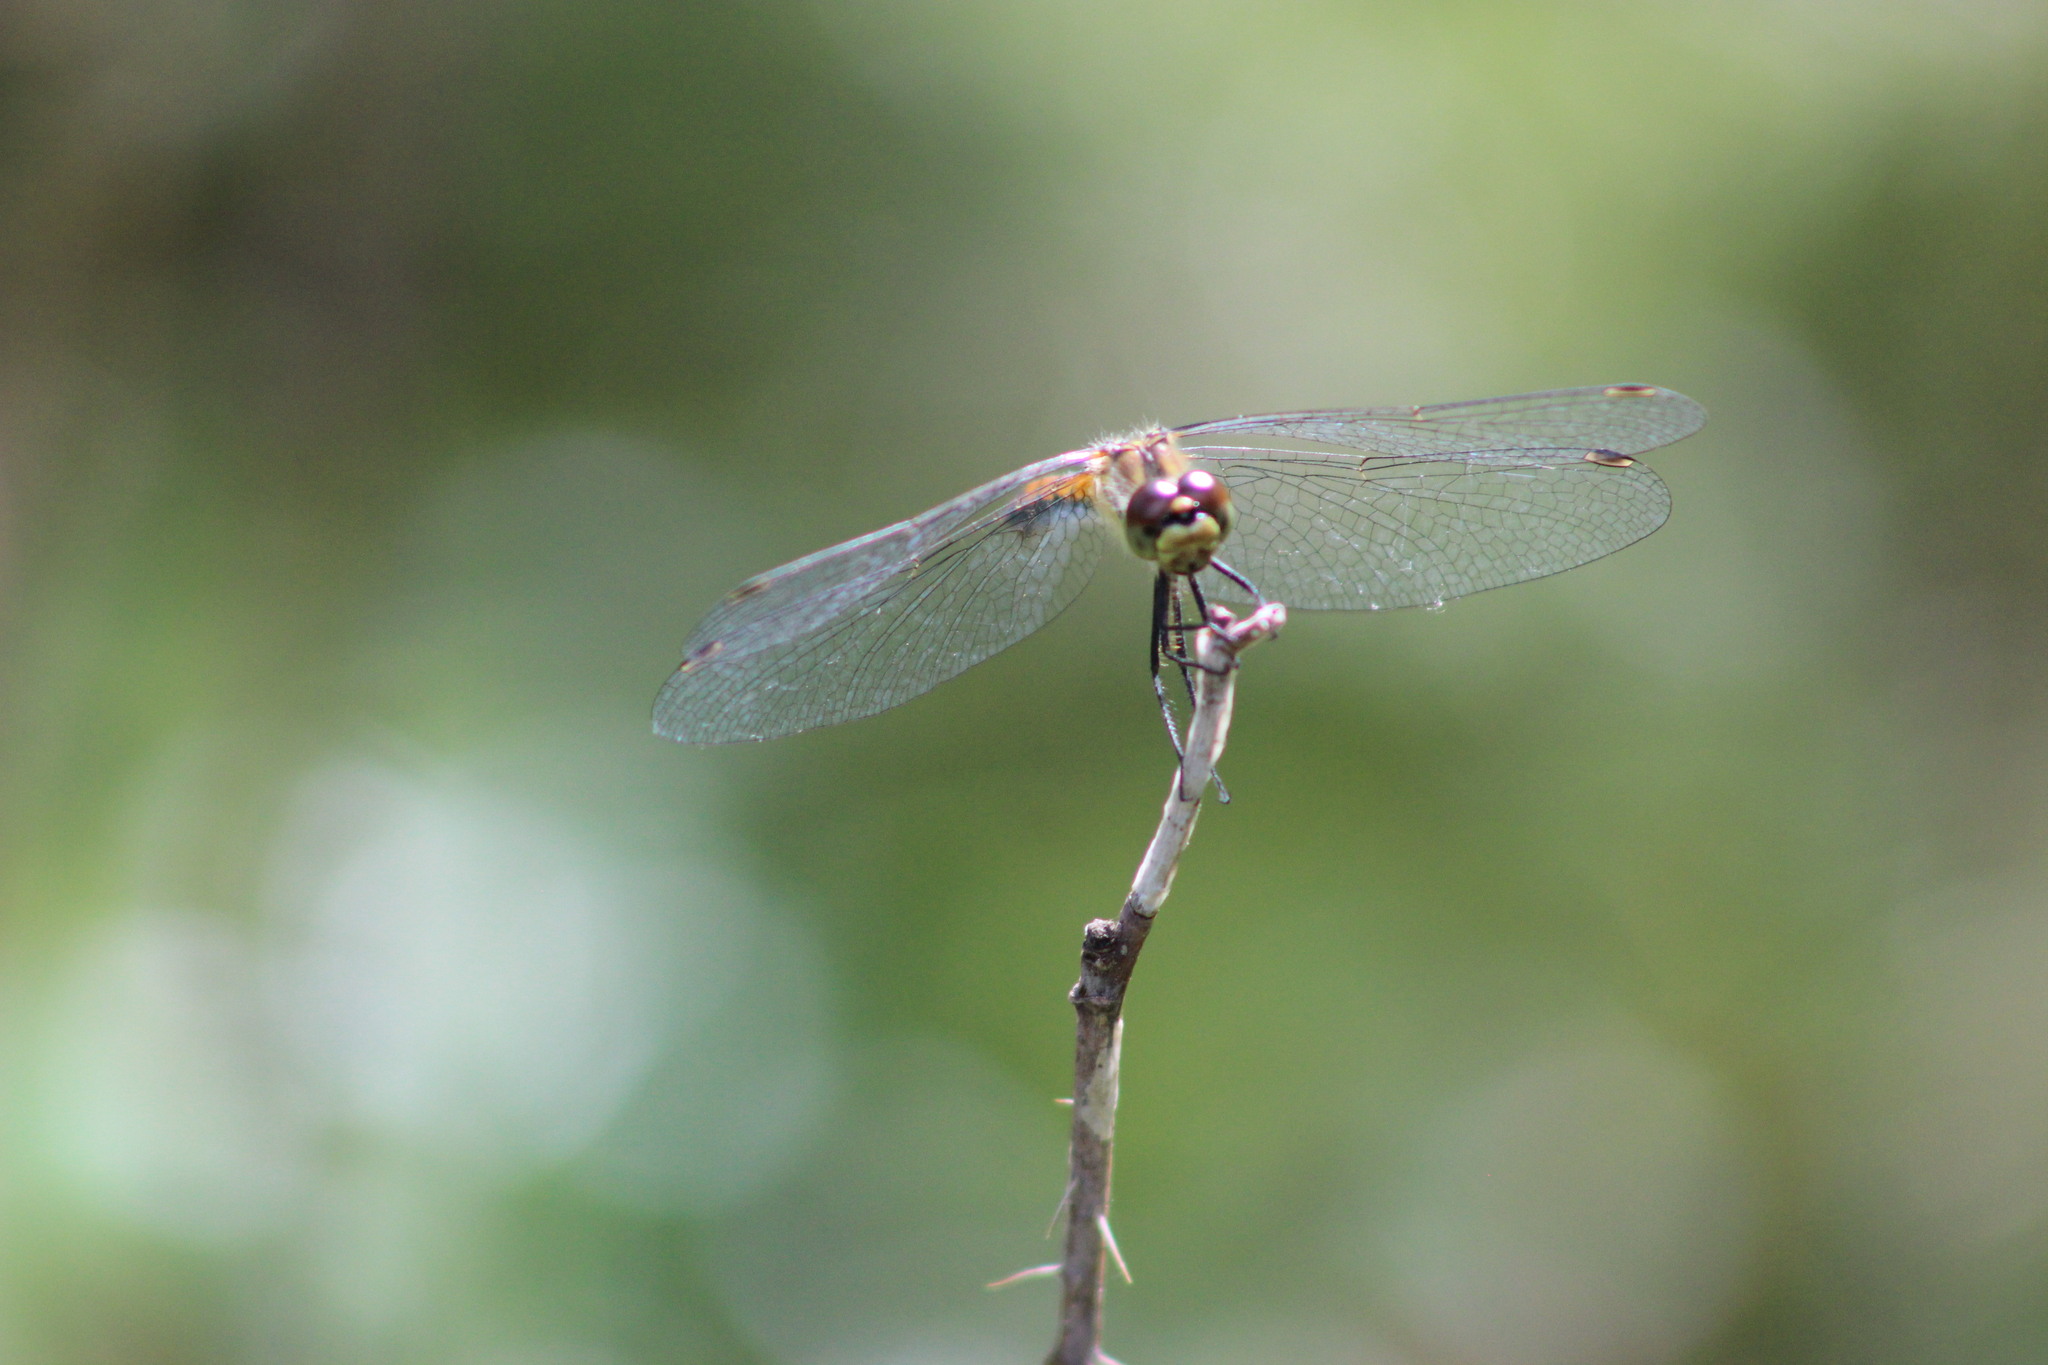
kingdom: Animalia
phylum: Arthropoda
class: Insecta
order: Odonata
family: Libellulidae
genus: Sympetrum
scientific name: Sympetrum danae
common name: Black darter
